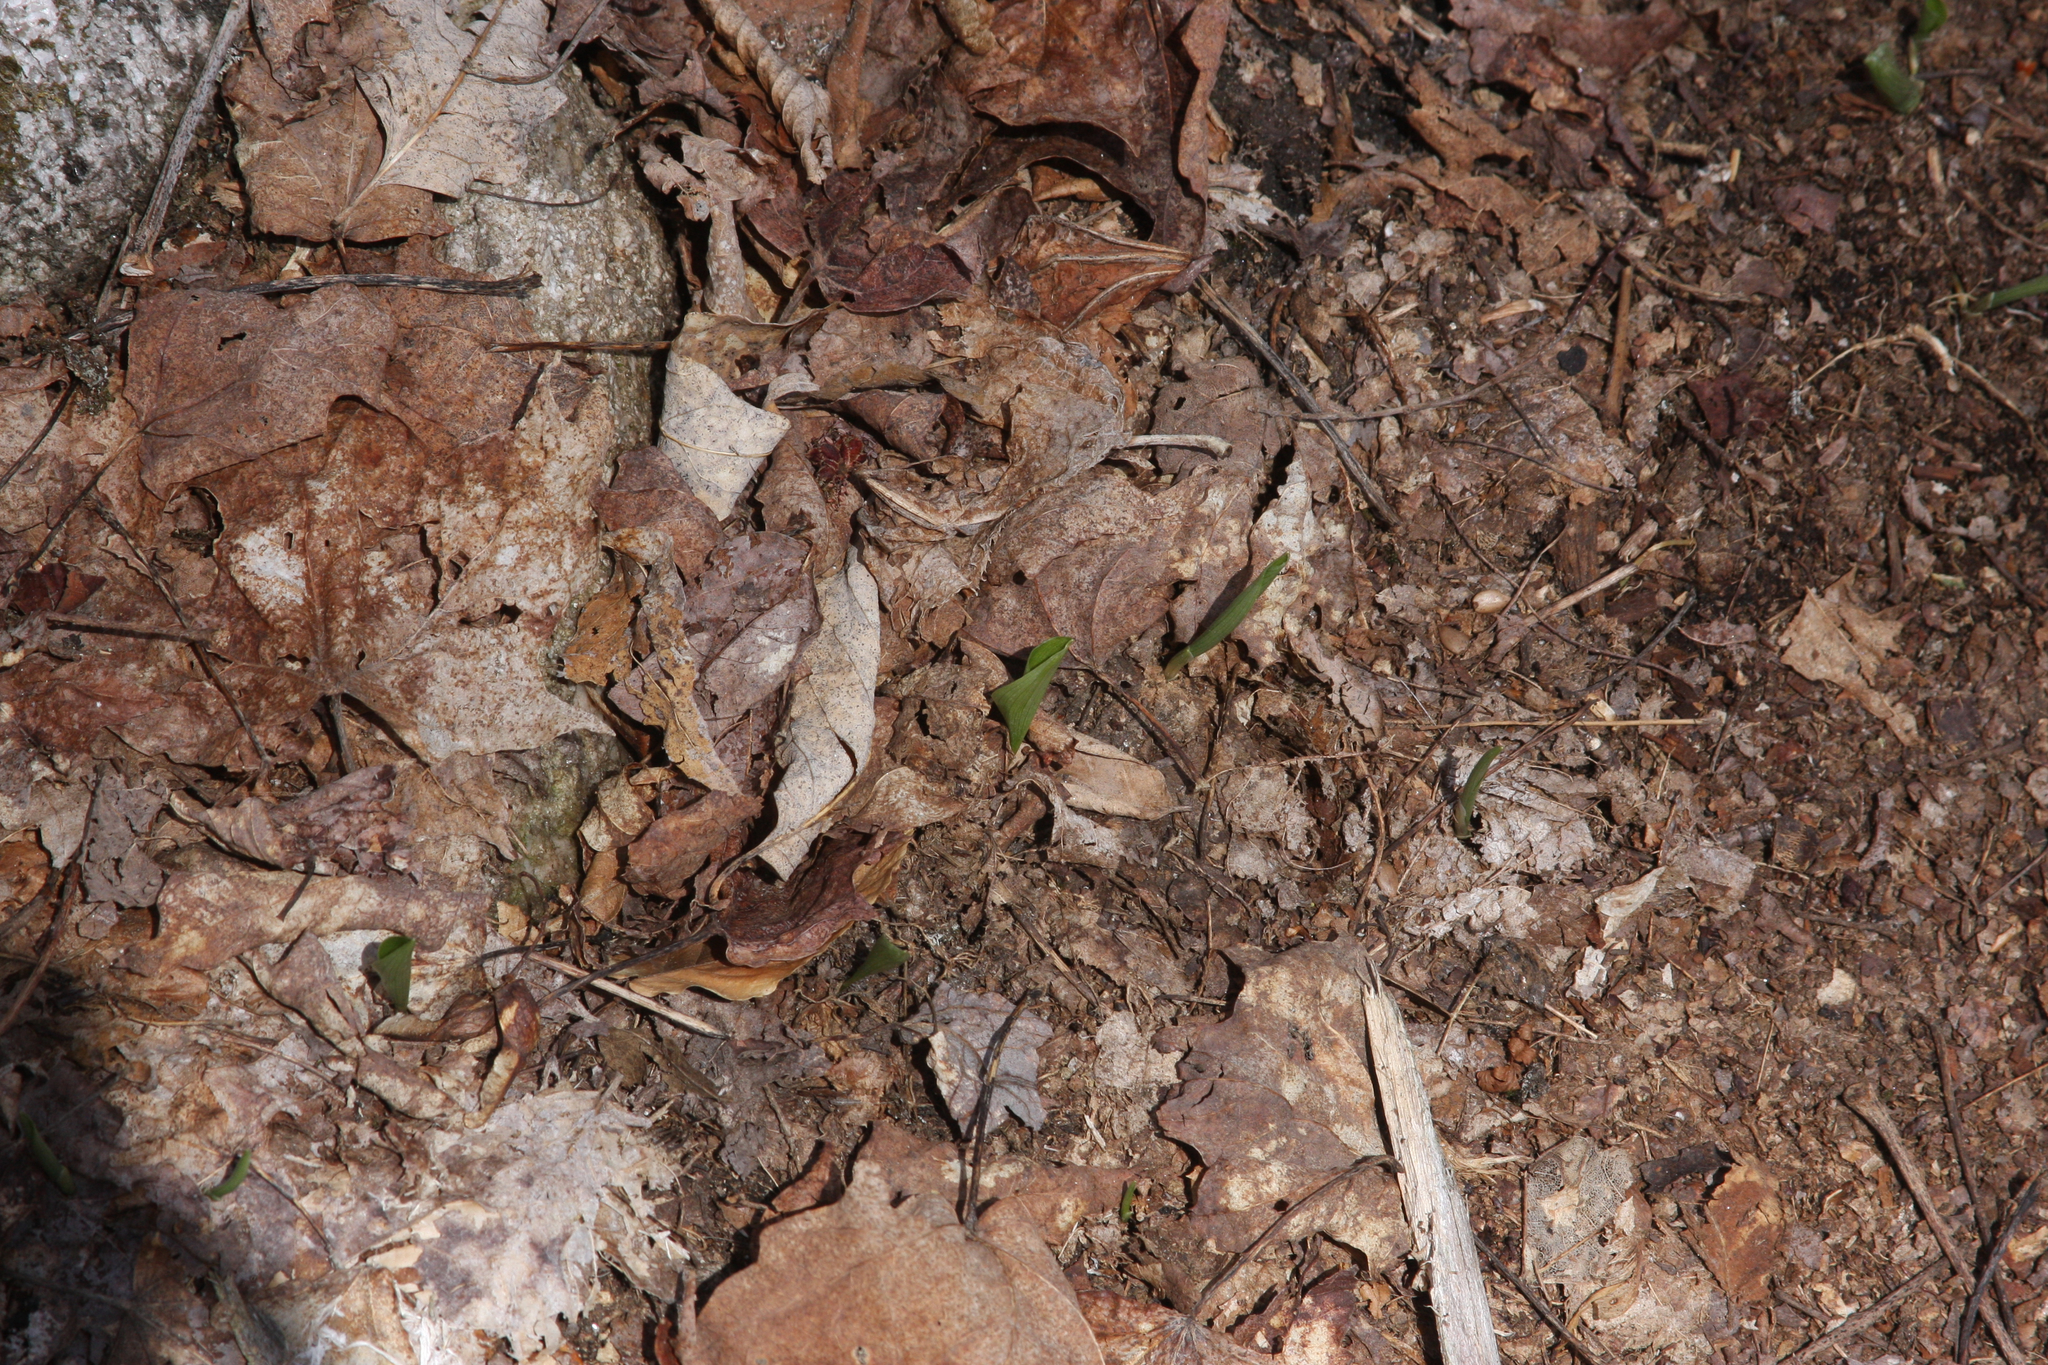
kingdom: Plantae
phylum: Tracheophyta
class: Liliopsida
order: Asparagales
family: Asparagaceae
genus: Maianthemum
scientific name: Maianthemum canadense
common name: False lily-of-the-valley
